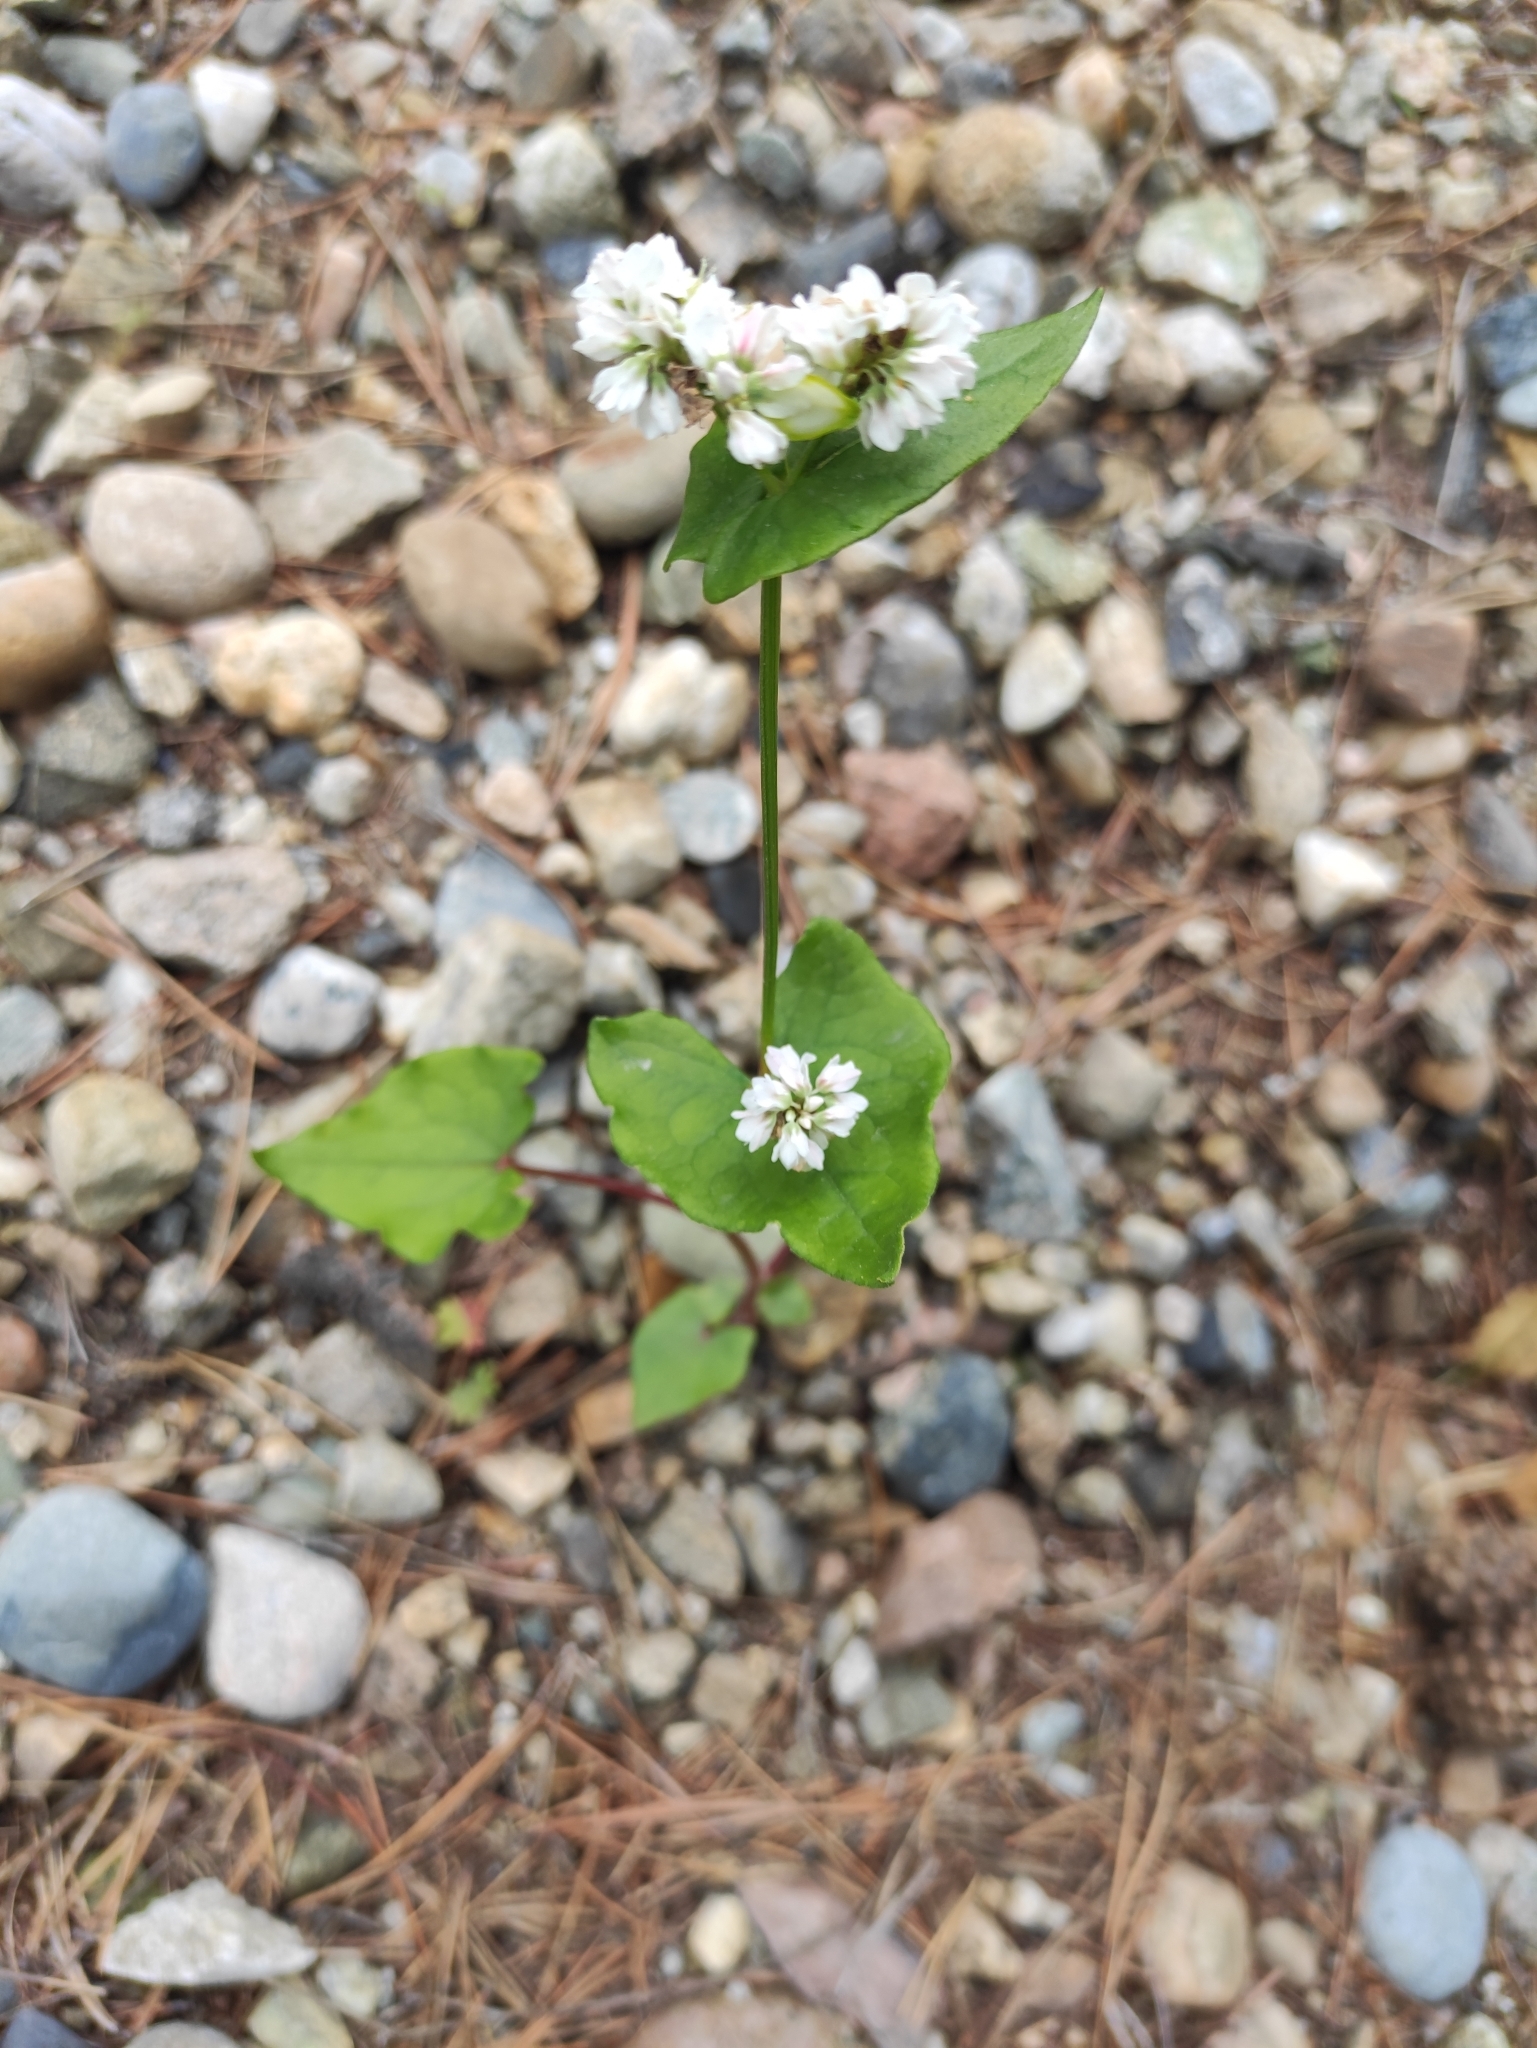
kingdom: Plantae
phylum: Tracheophyta
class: Magnoliopsida
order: Caryophyllales
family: Polygonaceae
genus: Fagopyrum
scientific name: Fagopyrum esculentum
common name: Buckwheat
